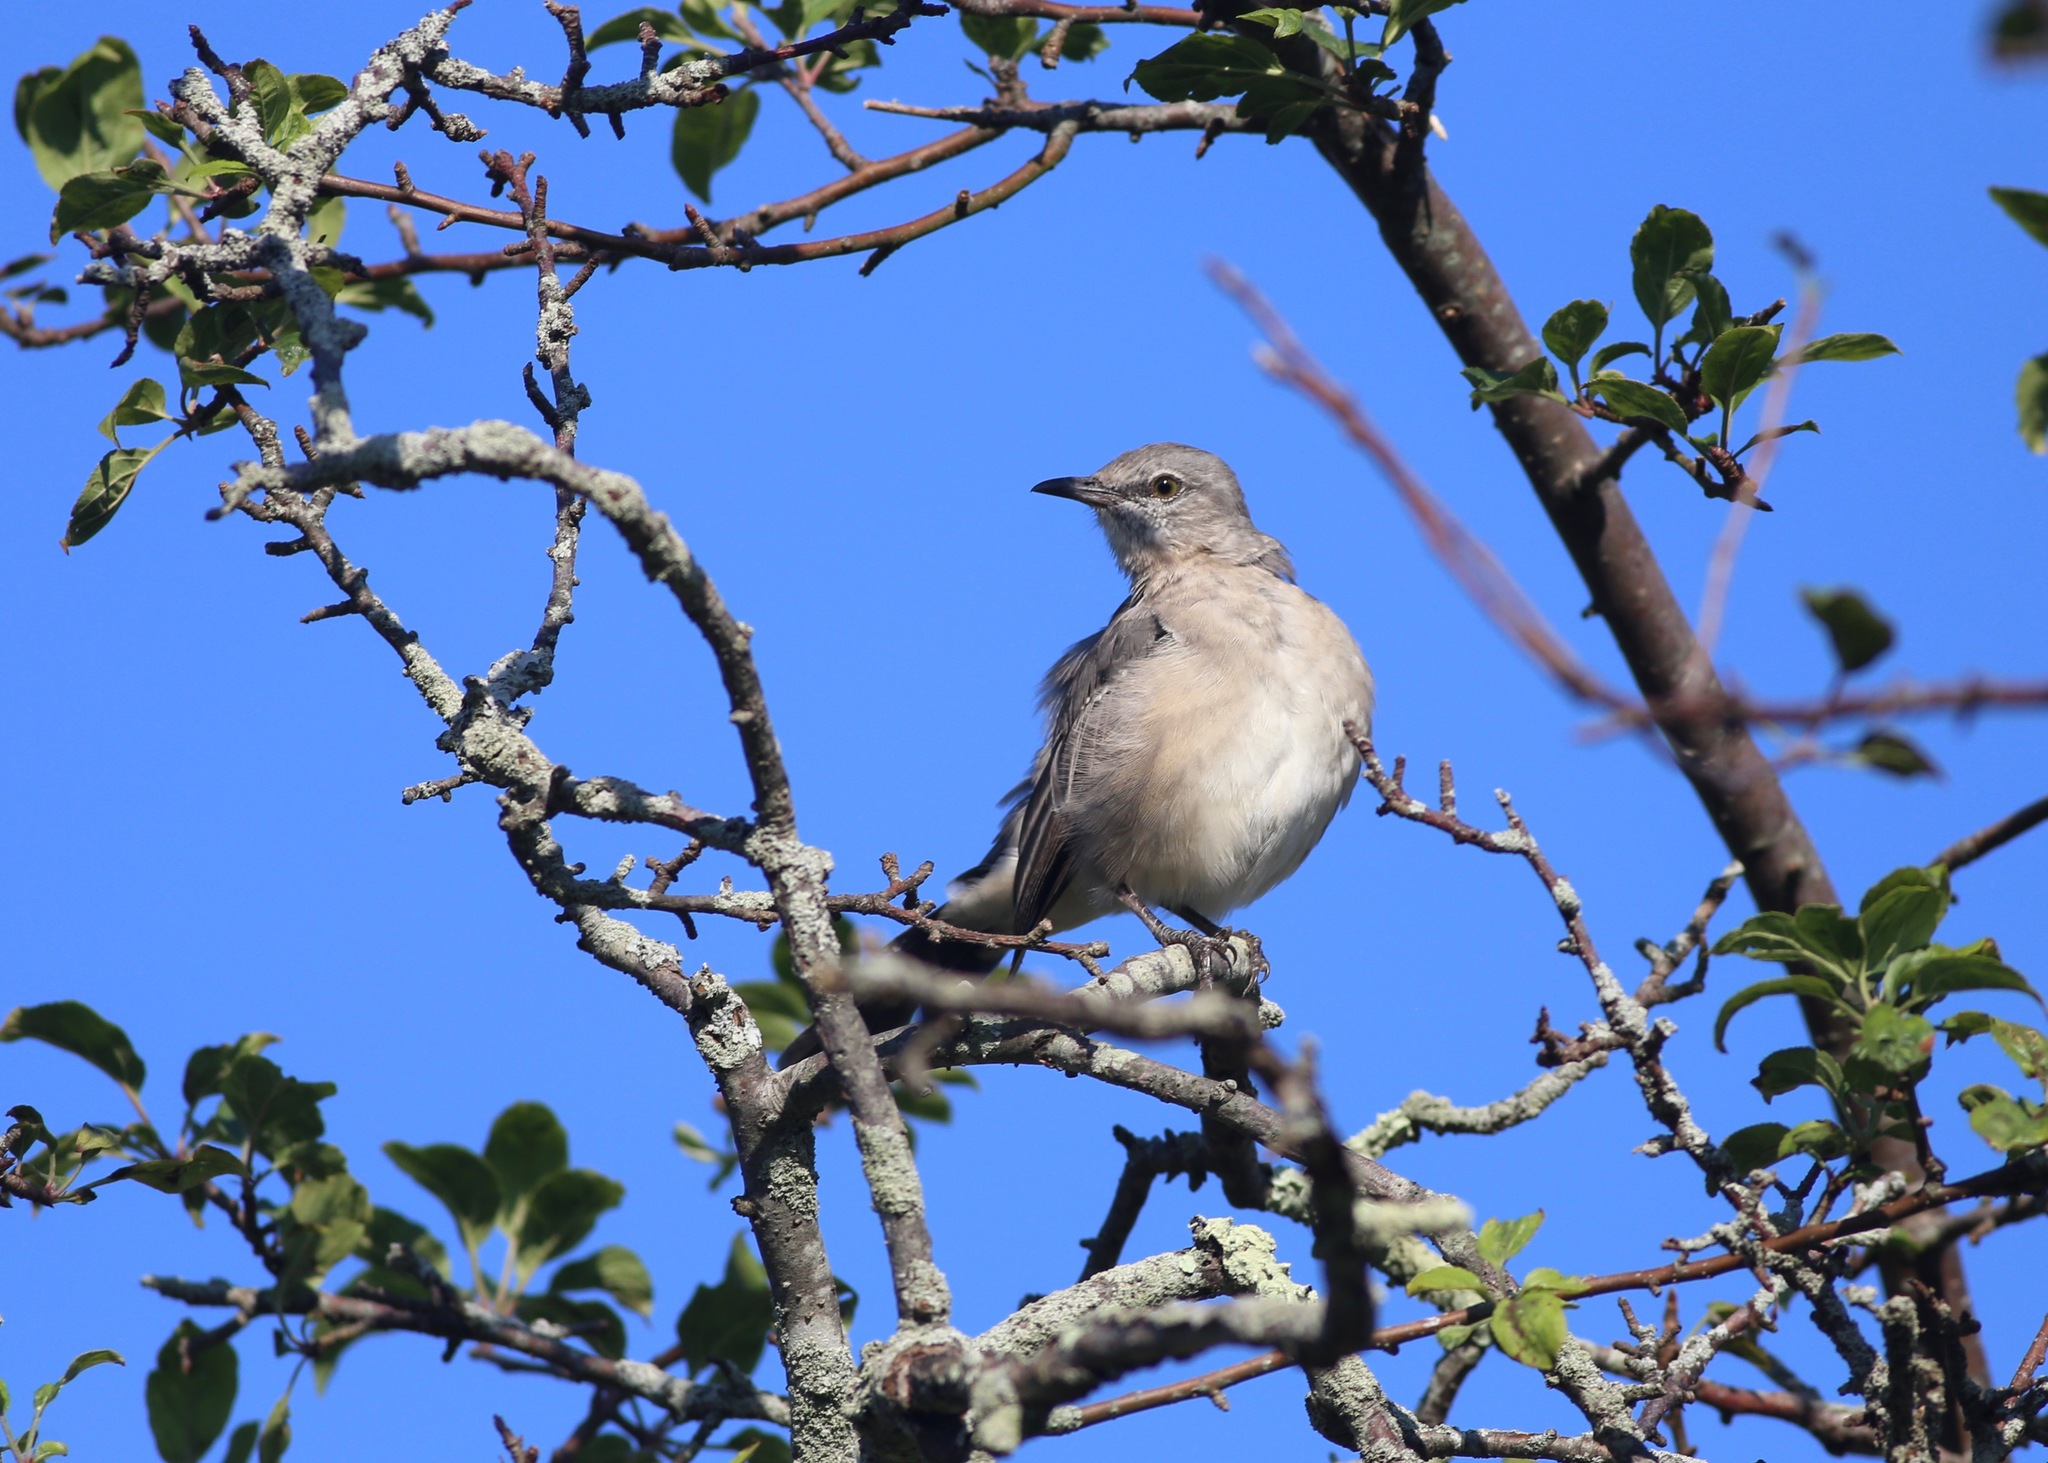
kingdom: Animalia
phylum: Chordata
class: Aves
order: Passeriformes
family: Mimidae
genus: Mimus
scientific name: Mimus polyglottos
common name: Northern mockingbird
